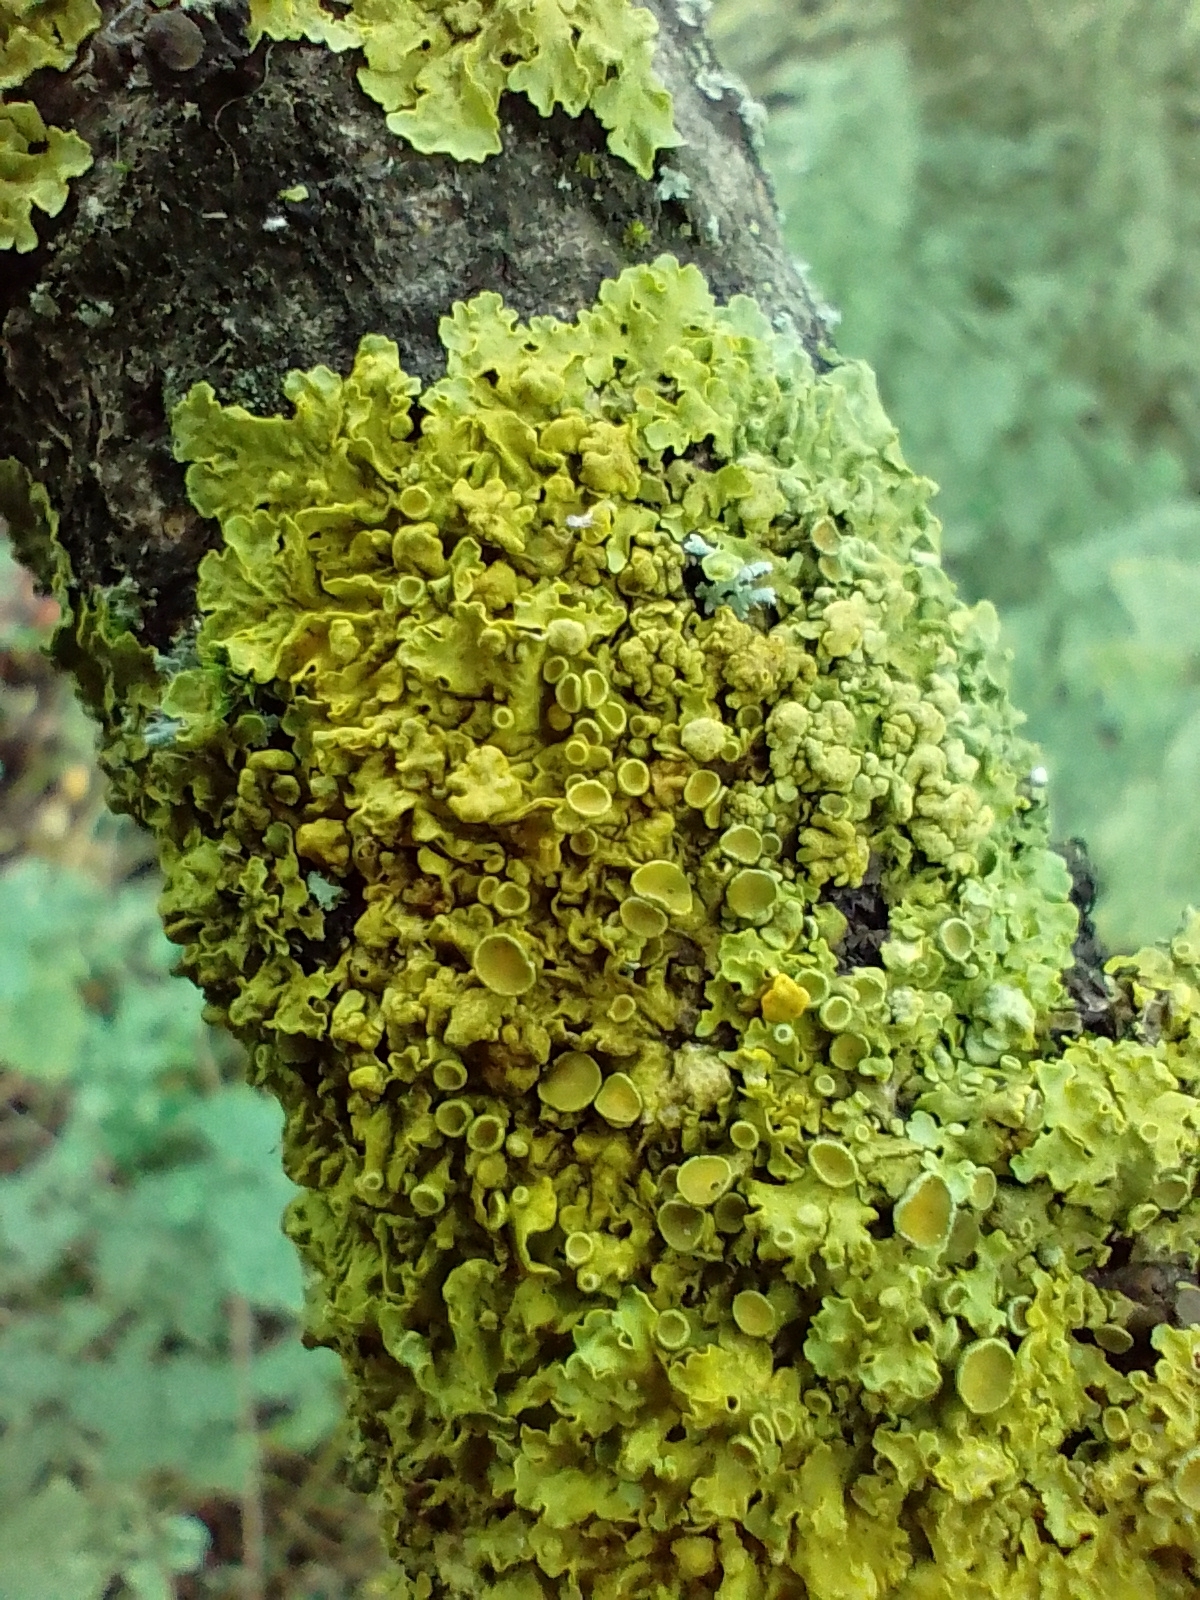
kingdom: Fungi
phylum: Ascomycota
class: Lecanoromycetes
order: Teloschistales
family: Teloschistaceae
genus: Xanthoria
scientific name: Xanthoria parietina
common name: Common orange lichen
